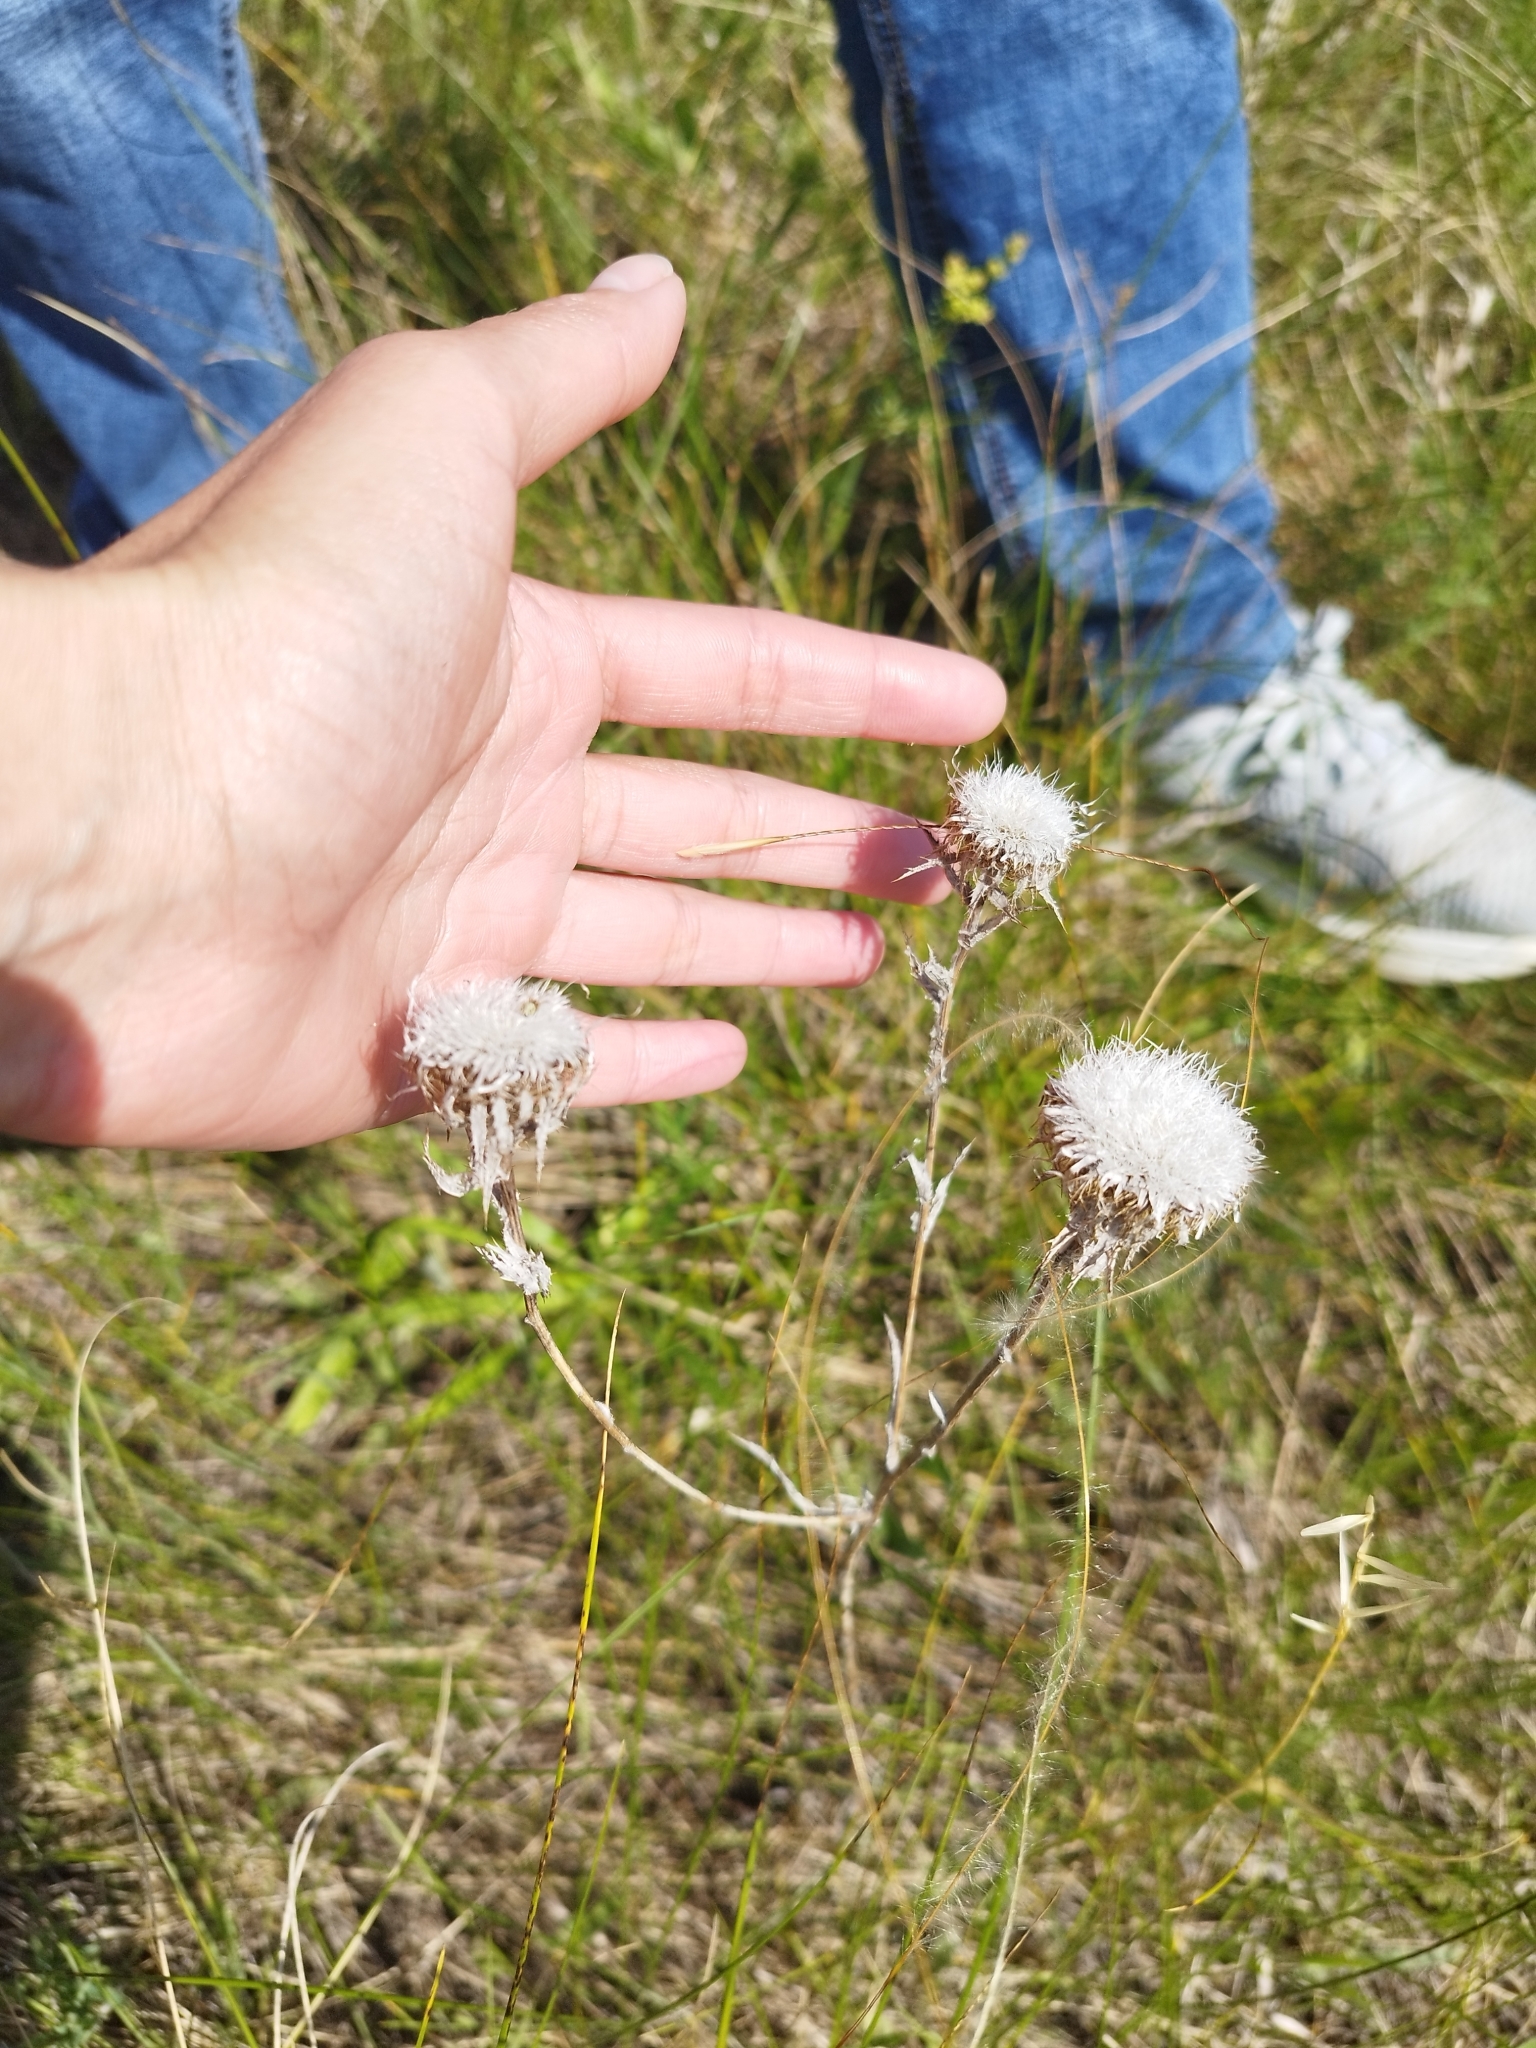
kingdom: Plantae
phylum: Tracheophyta
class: Magnoliopsida
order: Asterales
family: Asteraceae
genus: Carlina
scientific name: Carlina biebersteinii
